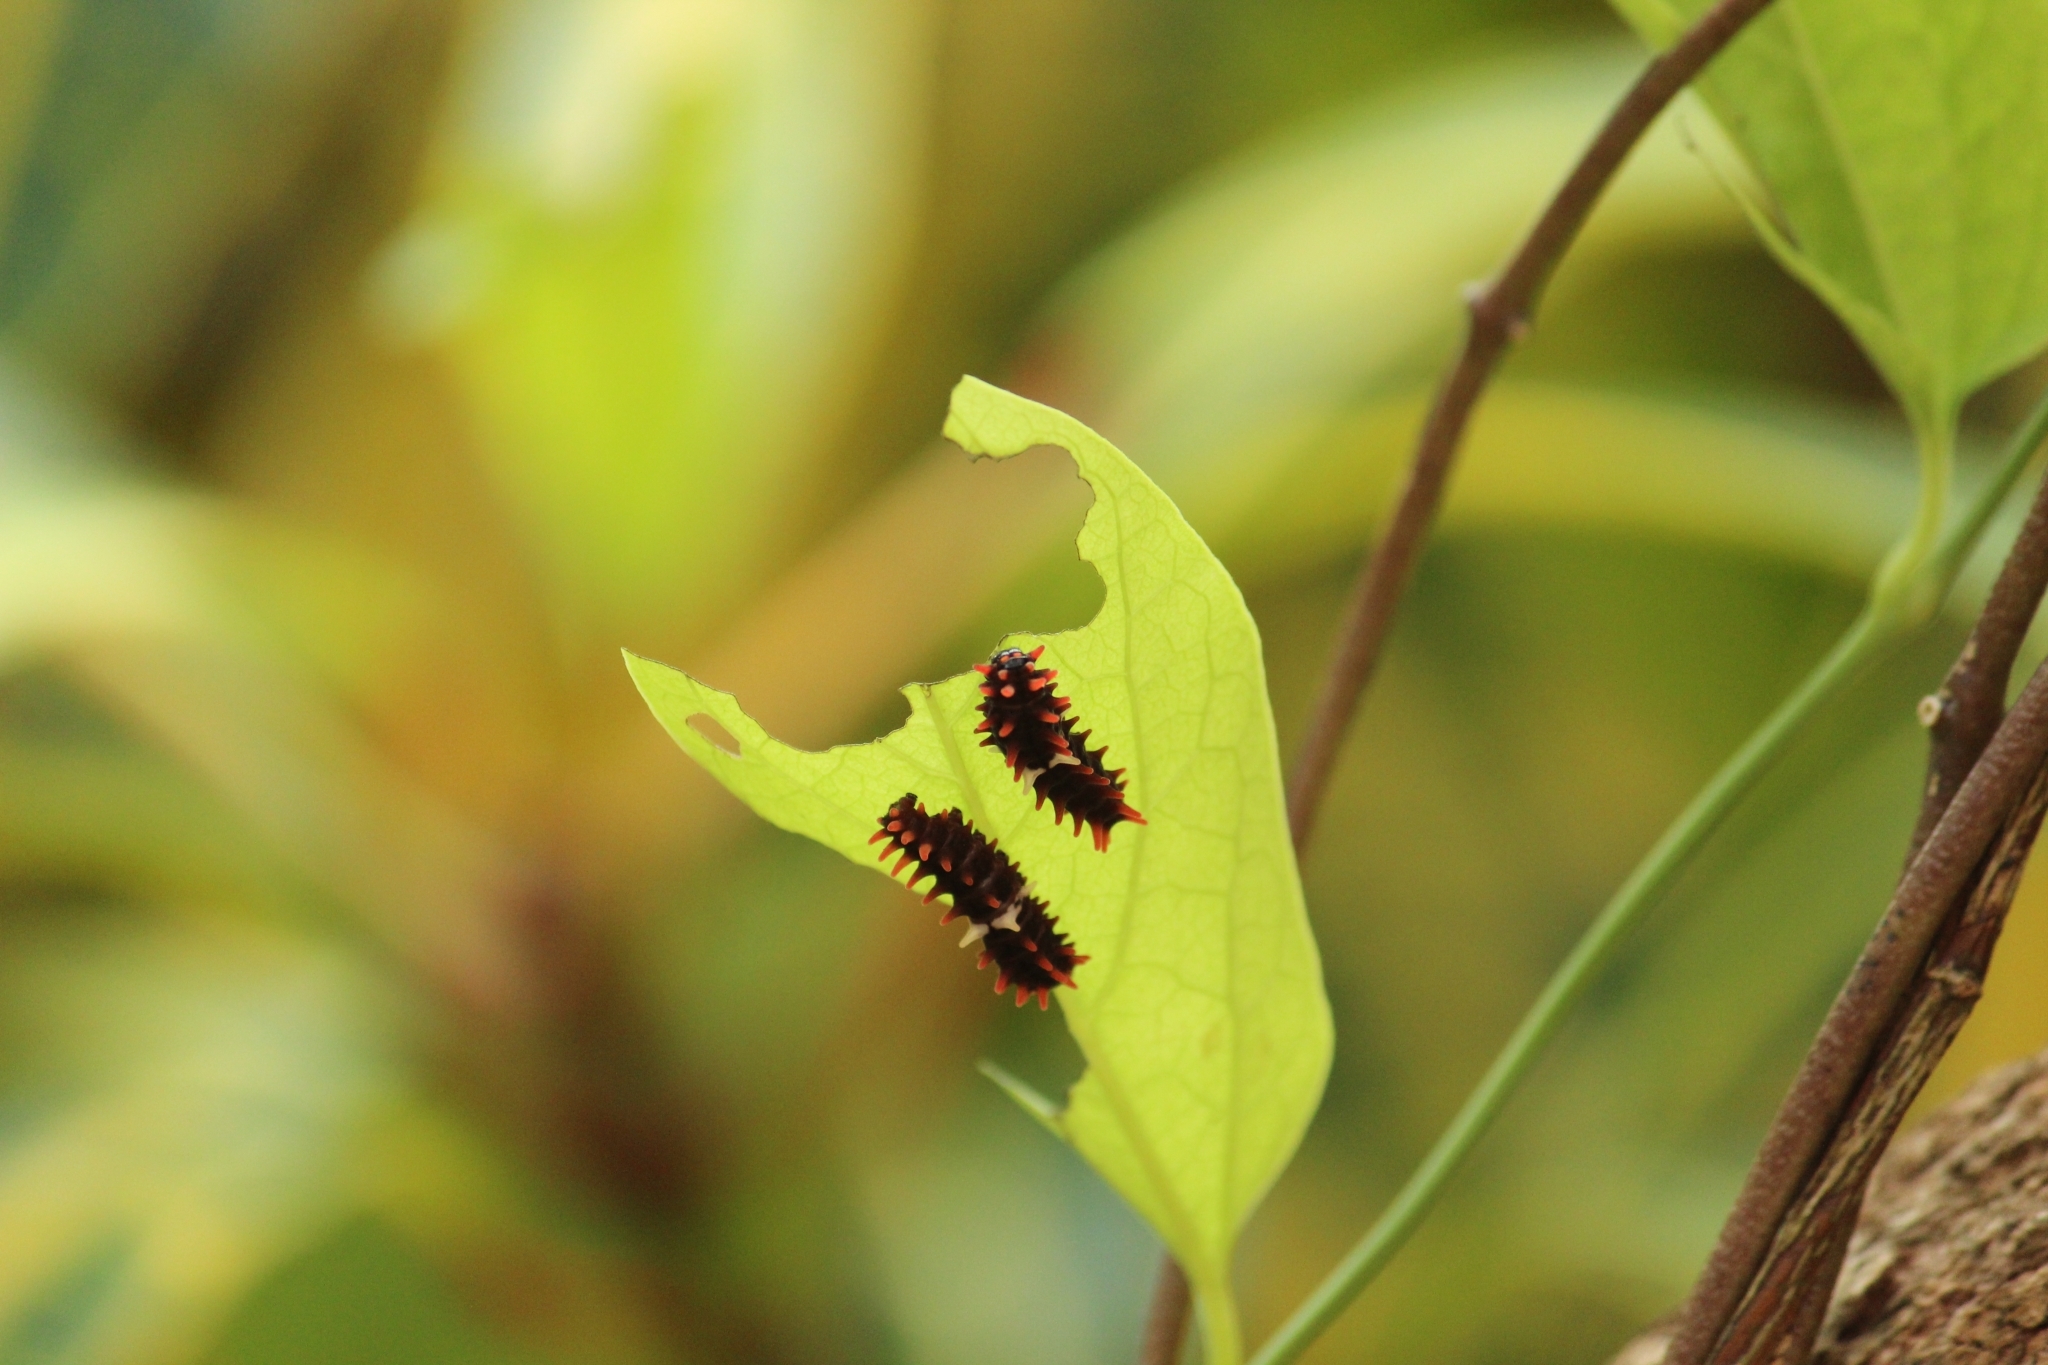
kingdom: Animalia
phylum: Arthropoda
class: Insecta
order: Lepidoptera
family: Papilionidae
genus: Pachliopta
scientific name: Pachliopta aristolochiae
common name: Common rose
